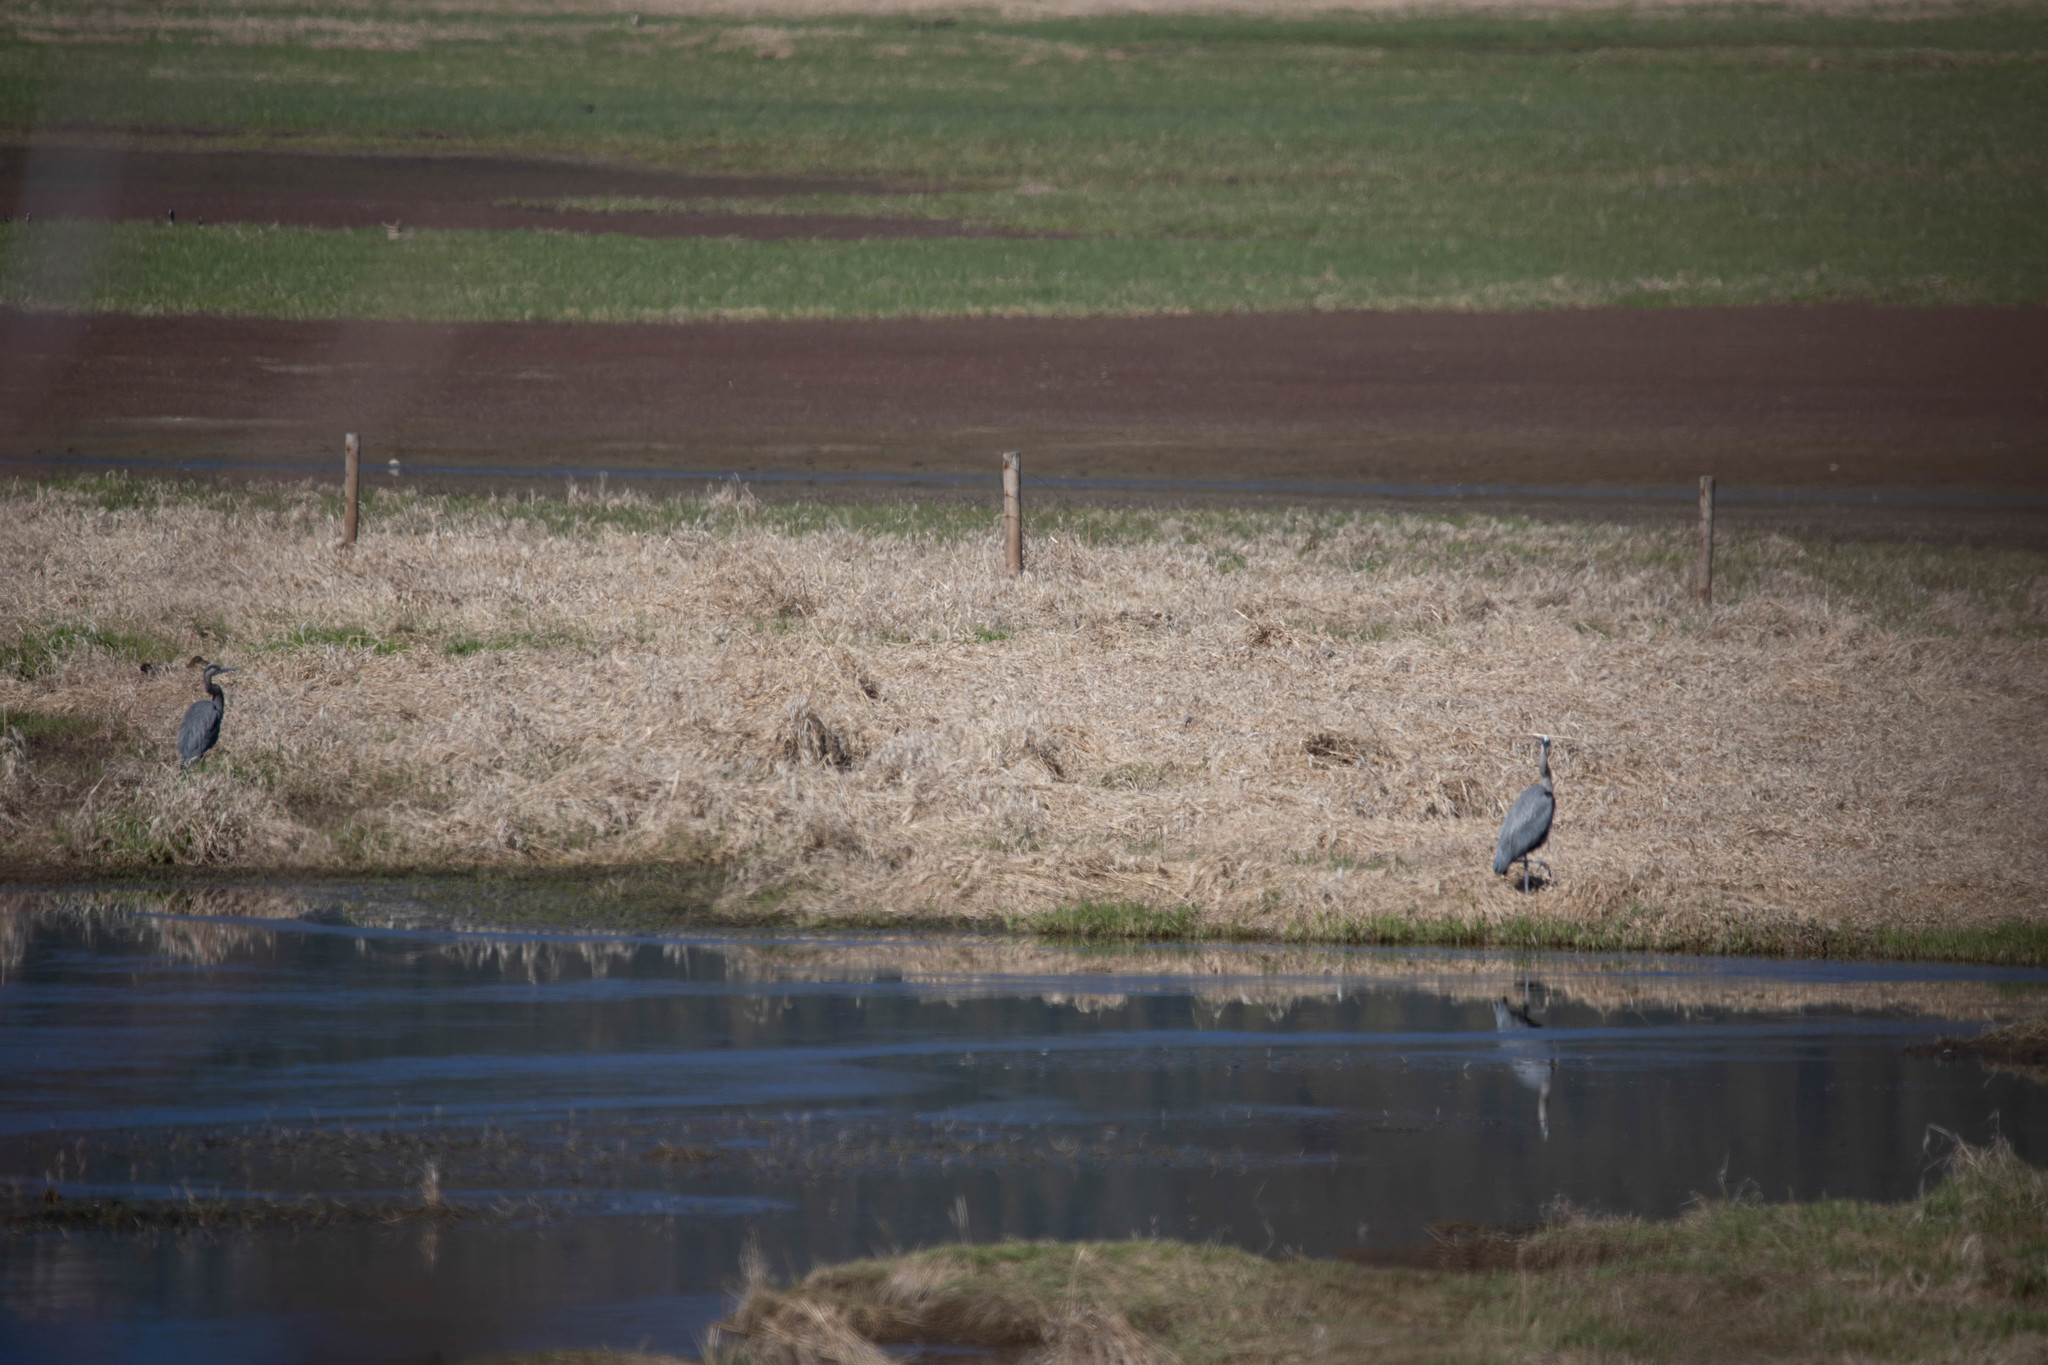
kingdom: Animalia
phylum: Chordata
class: Aves
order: Pelecaniformes
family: Ardeidae
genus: Ardea
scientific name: Ardea herodias
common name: Great blue heron
